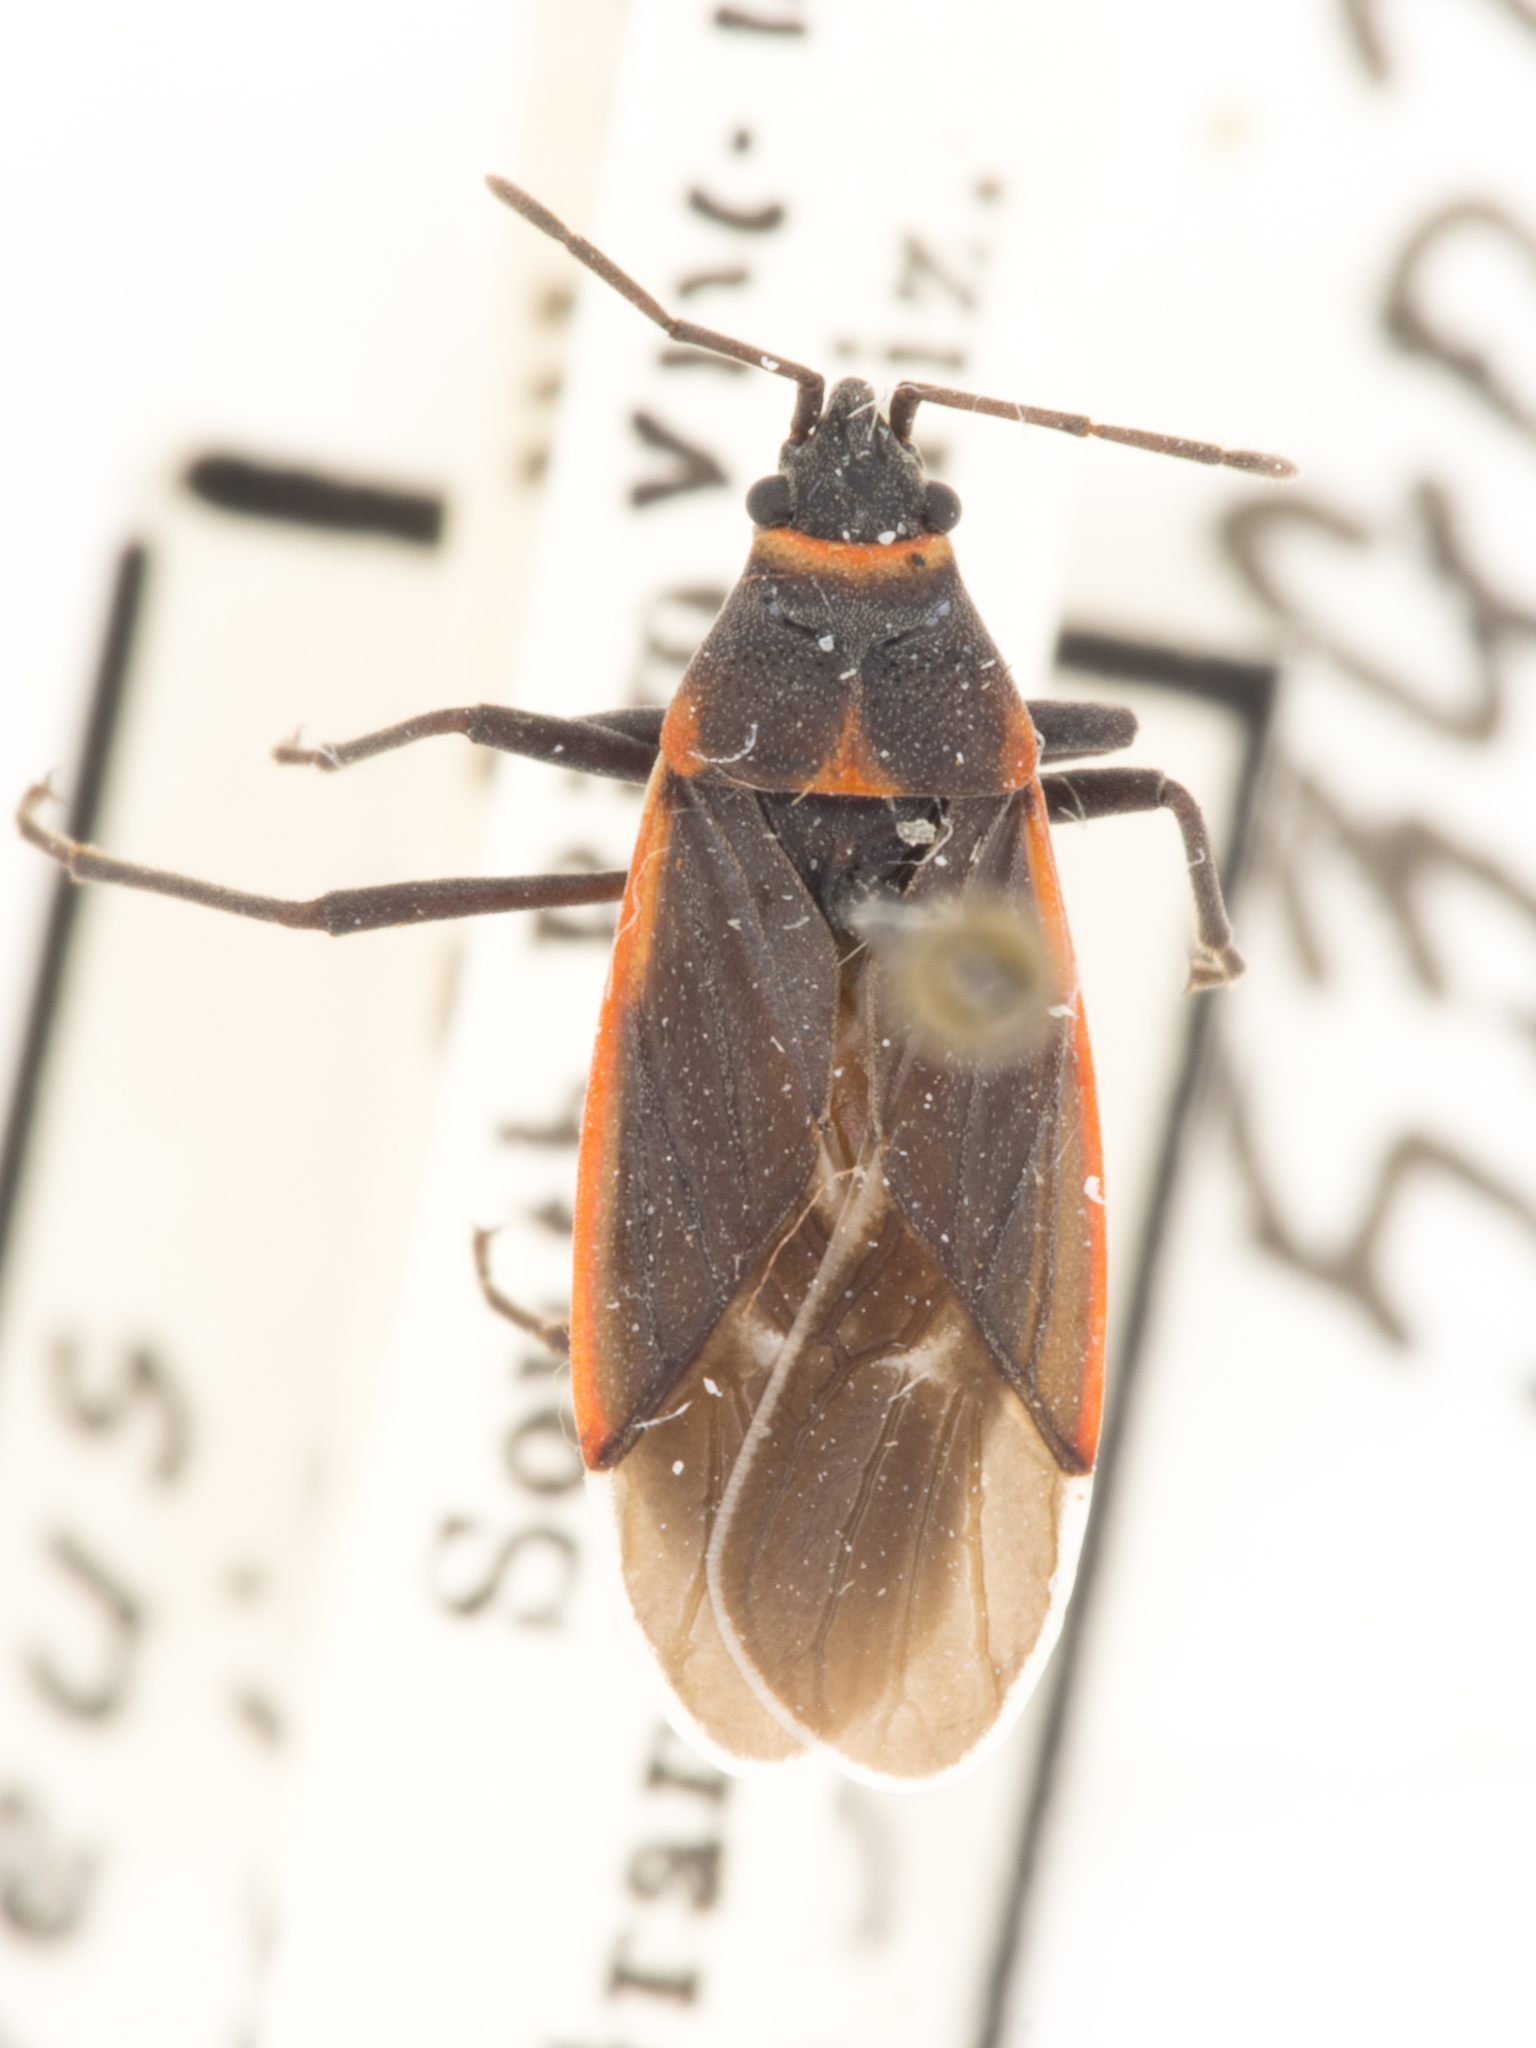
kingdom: Animalia
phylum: Arthropoda
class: Insecta
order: Hemiptera
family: Lygaeidae
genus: Melacoryphus
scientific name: Melacoryphus lateralis
